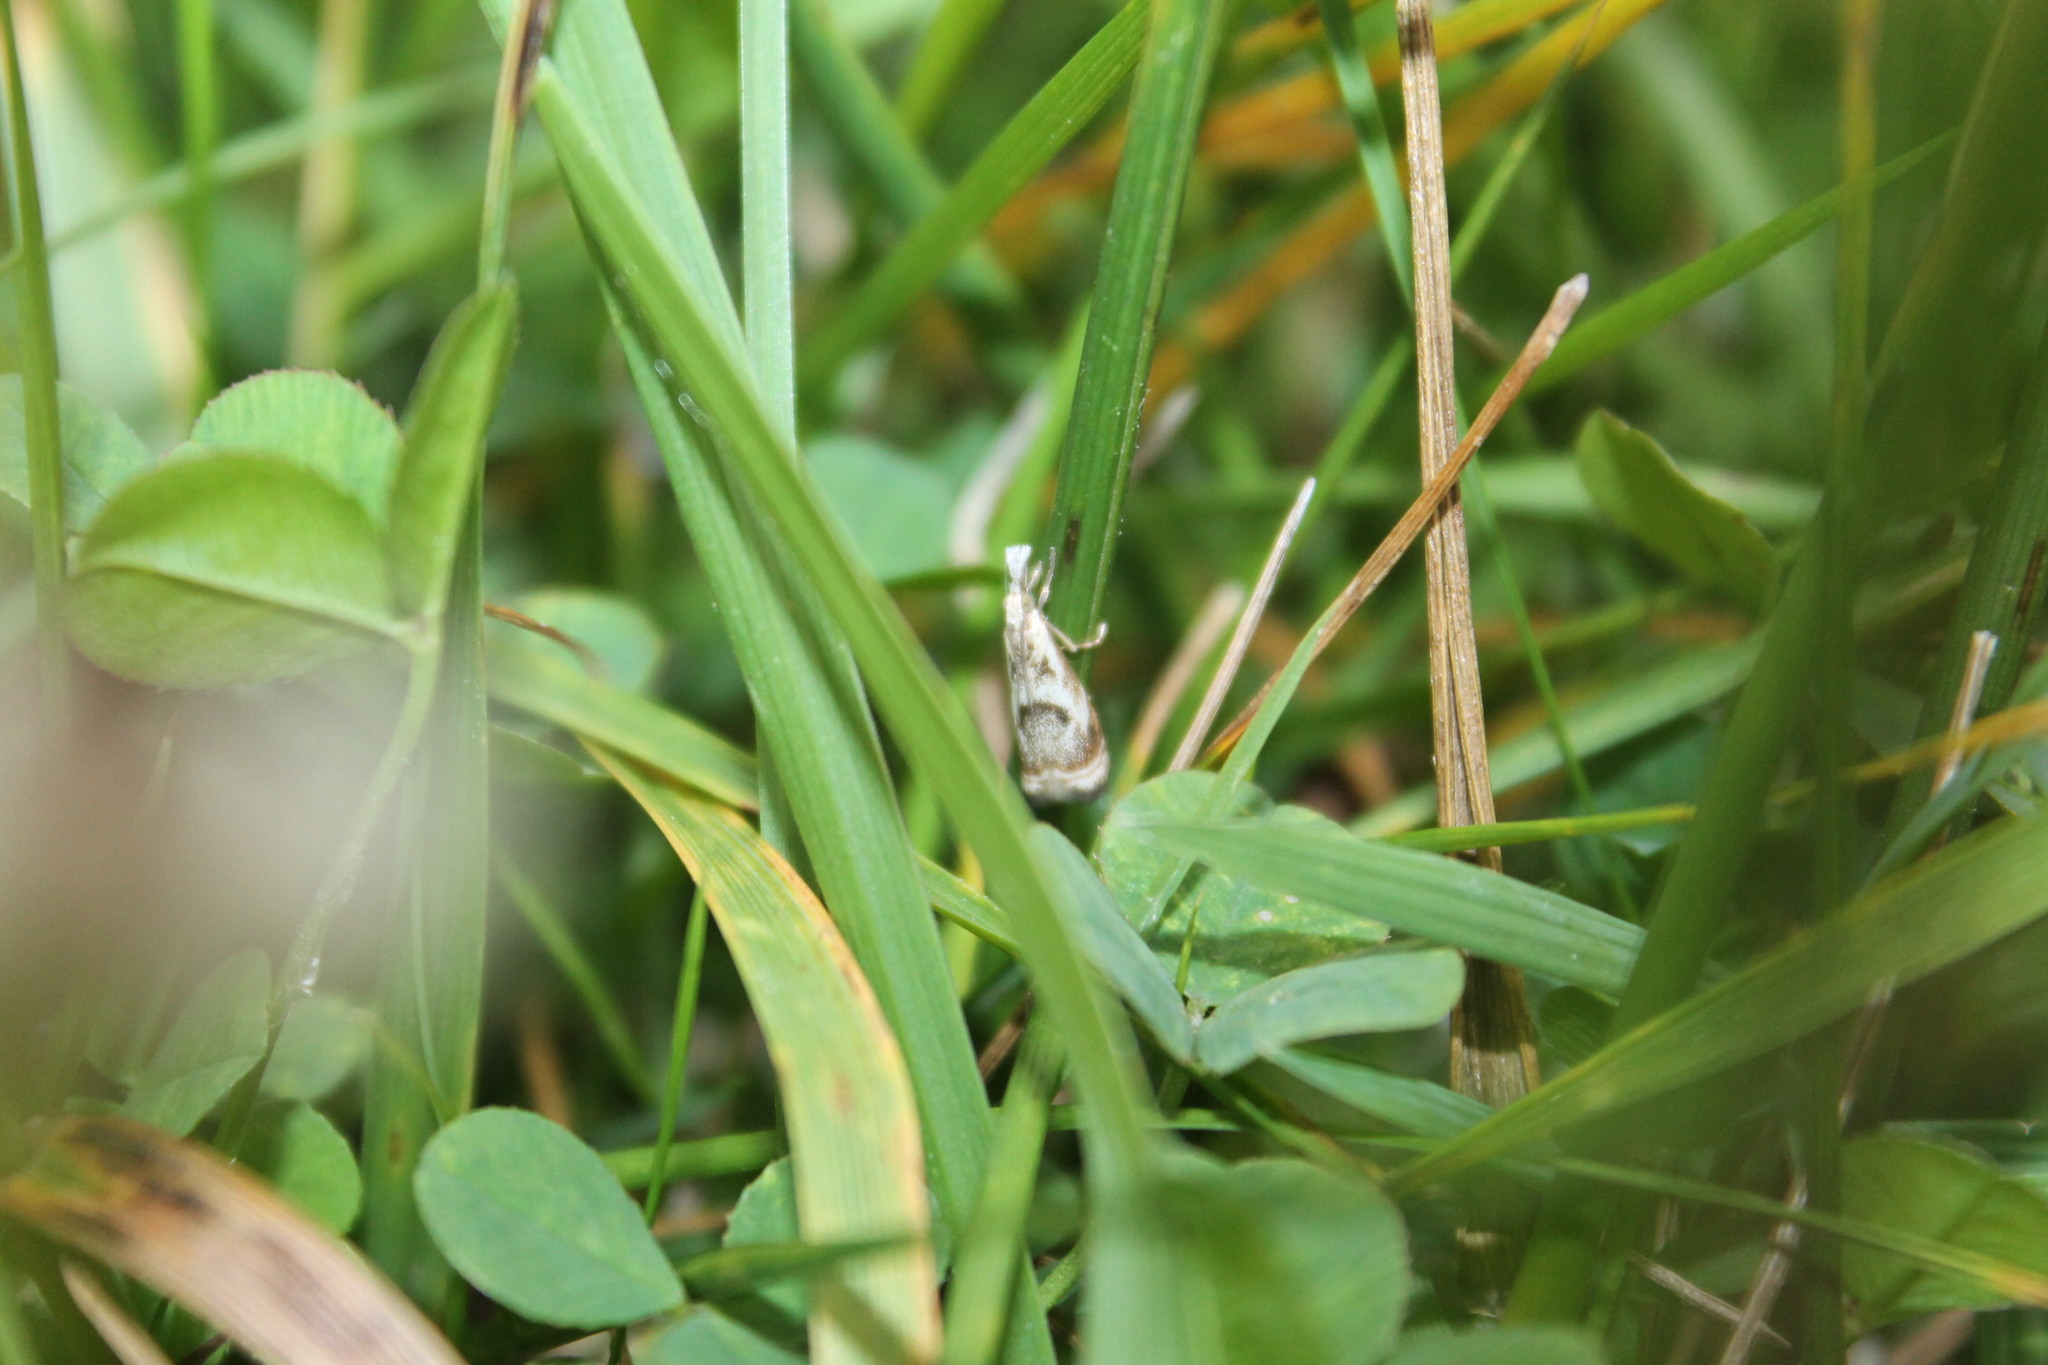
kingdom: Animalia
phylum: Arthropoda
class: Insecta
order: Lepidoptera
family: Crambidae
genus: Microcrambus
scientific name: Microcrambus elegans
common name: Elegant grass-veneer
